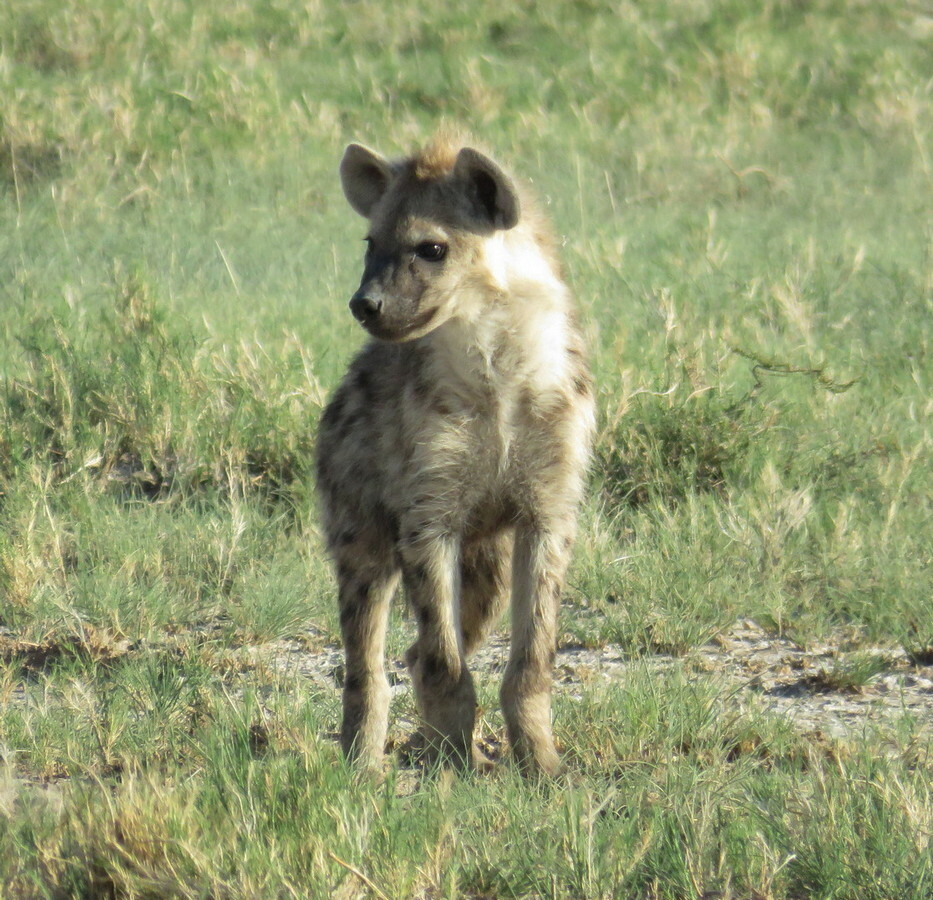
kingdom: Animalia
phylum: Chordata
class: Mammalia
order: Carnivora
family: Hyaenidae
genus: Crocuta
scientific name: Crocuta crocuta
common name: Spotted hyaena
